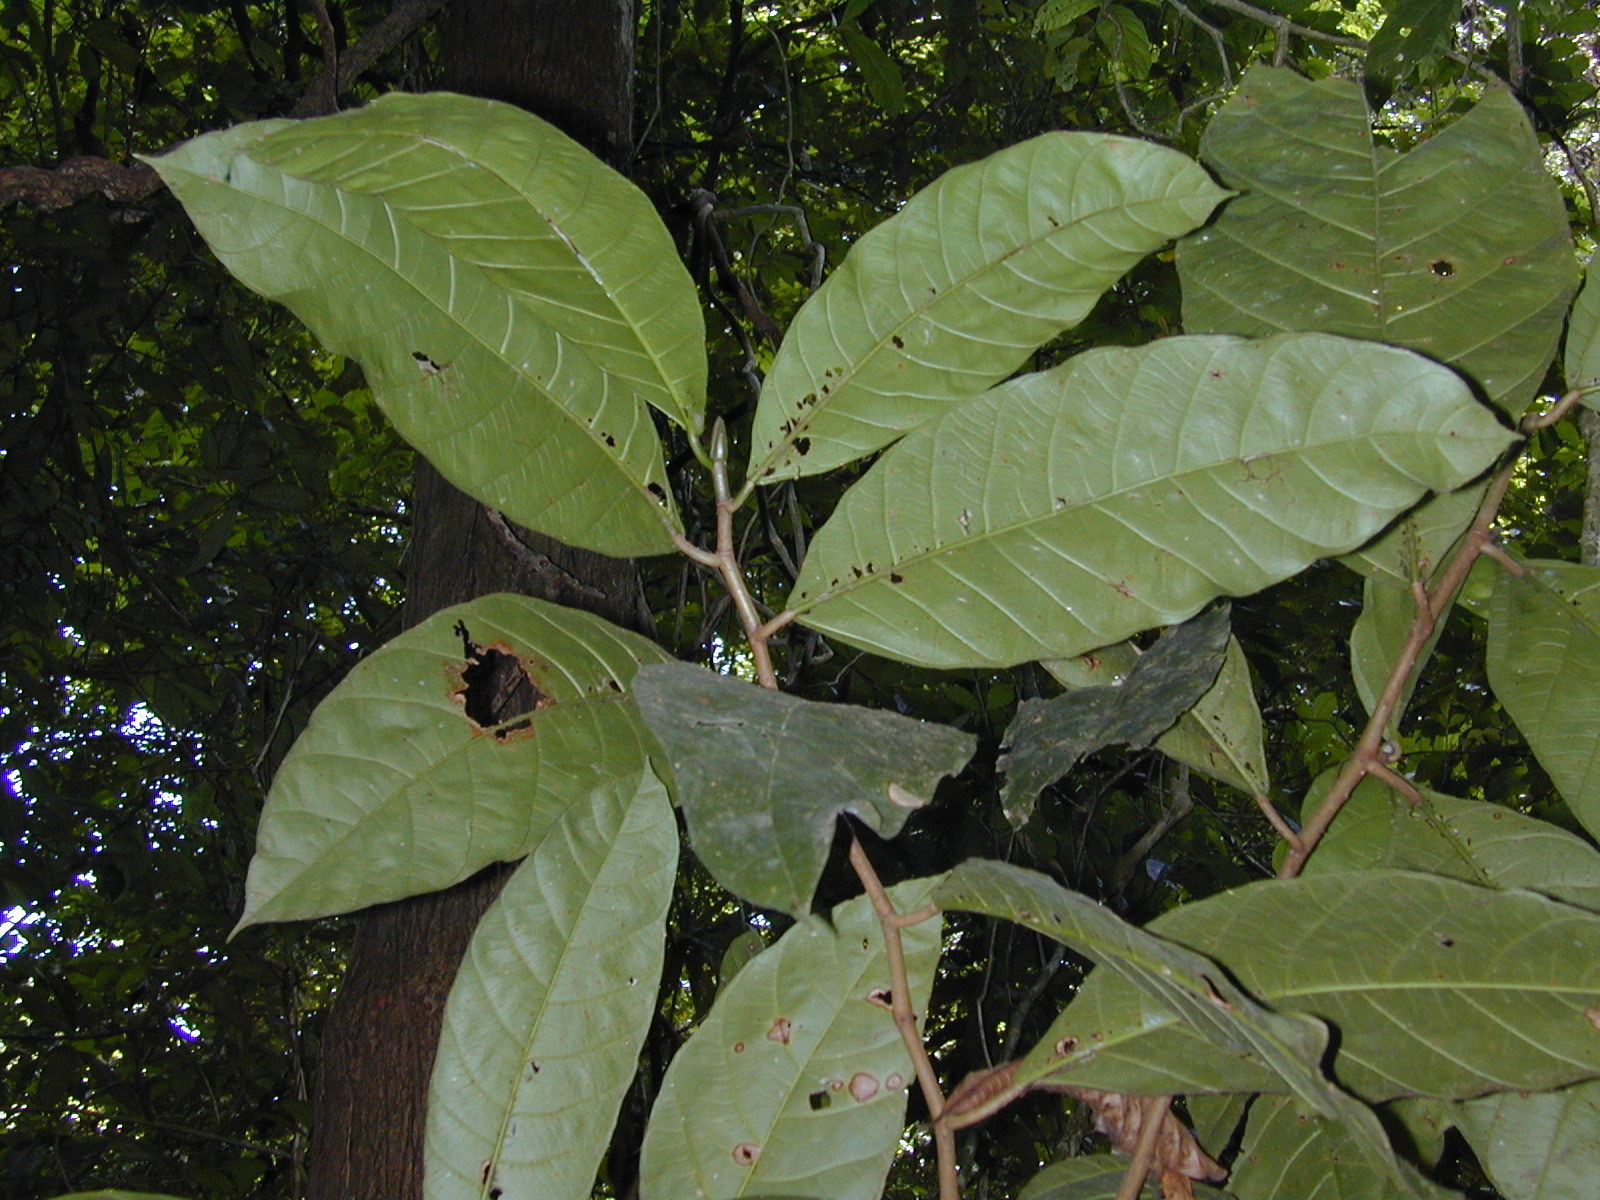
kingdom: Plantae
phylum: Tracheophyta
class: Magnoliopsida
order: Rosales
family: Moraceae
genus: Poulsenia
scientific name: Poulsenia armata
